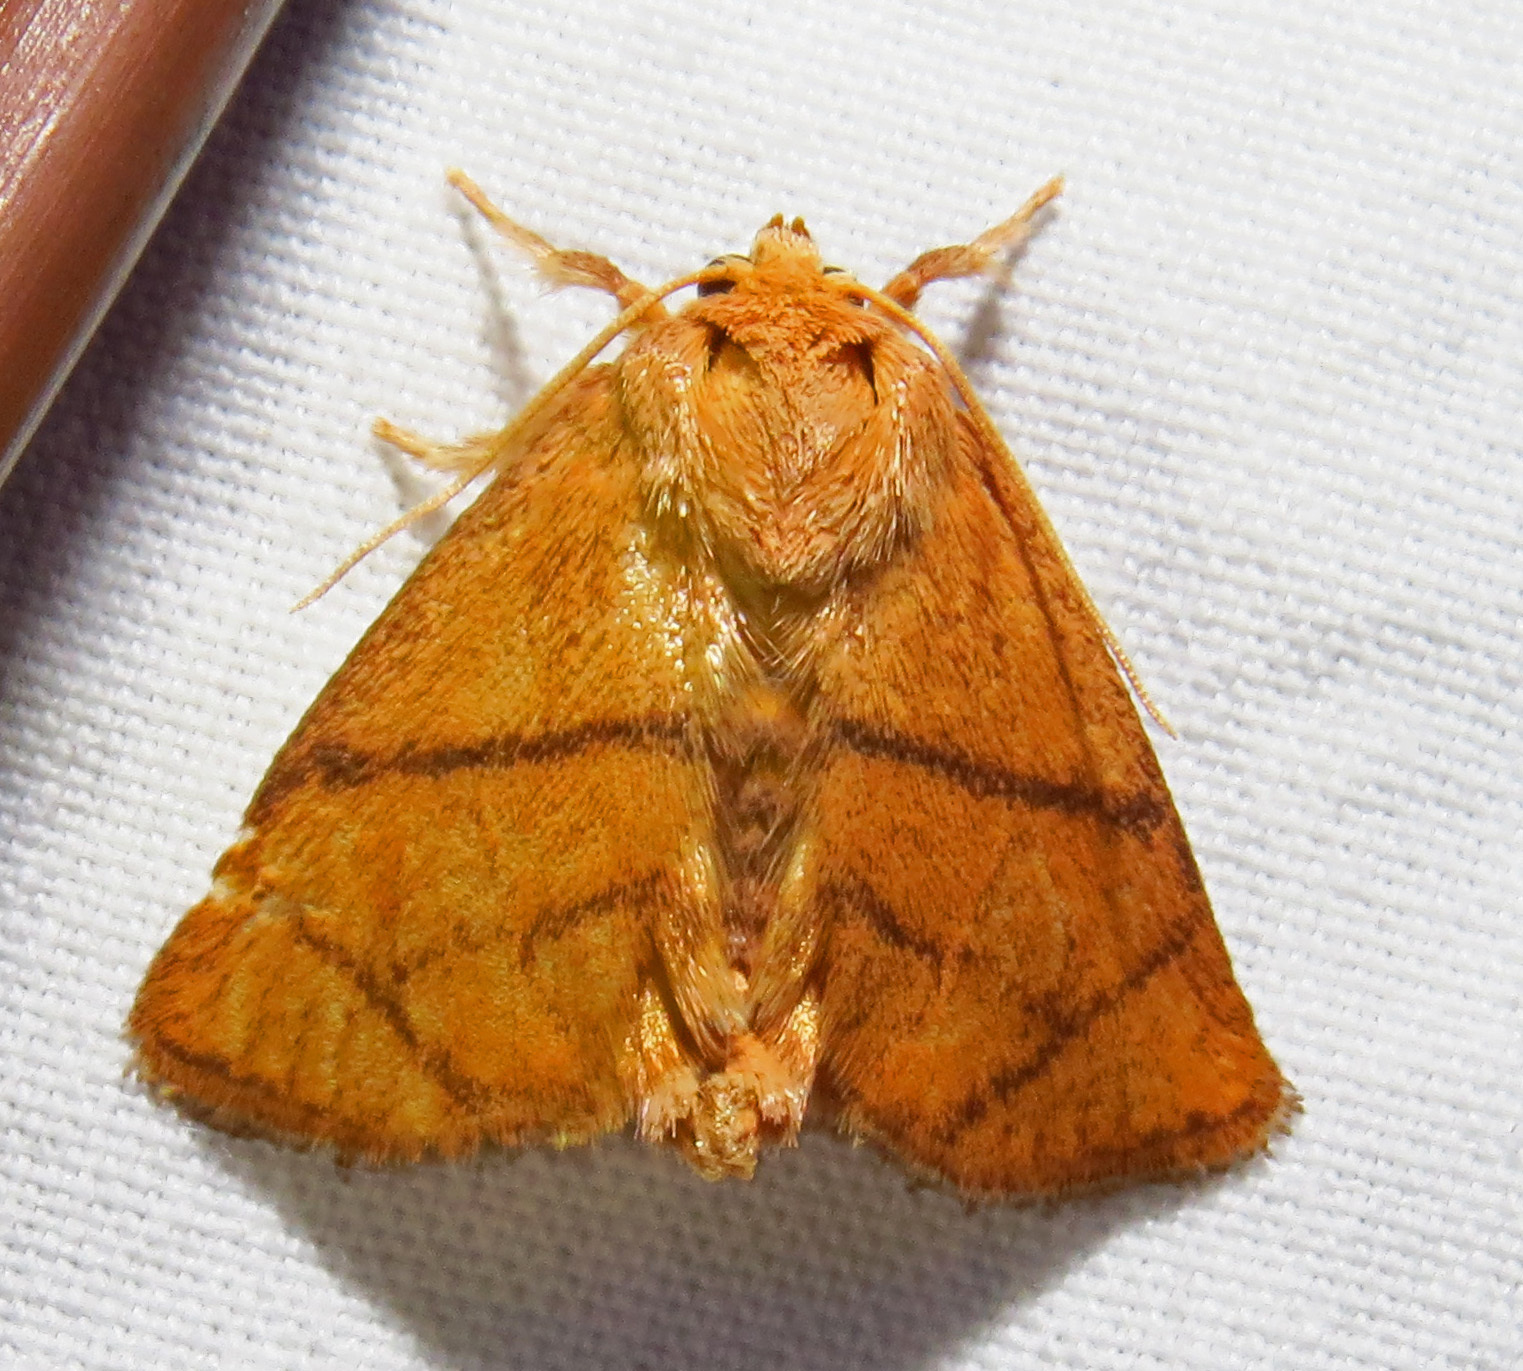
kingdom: Animalia
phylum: Arthropoda
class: Insecta
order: Lepidoptera
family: Limacodidae
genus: Apoda
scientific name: Apoda y-inversa
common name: Yellow-collared slug moth
